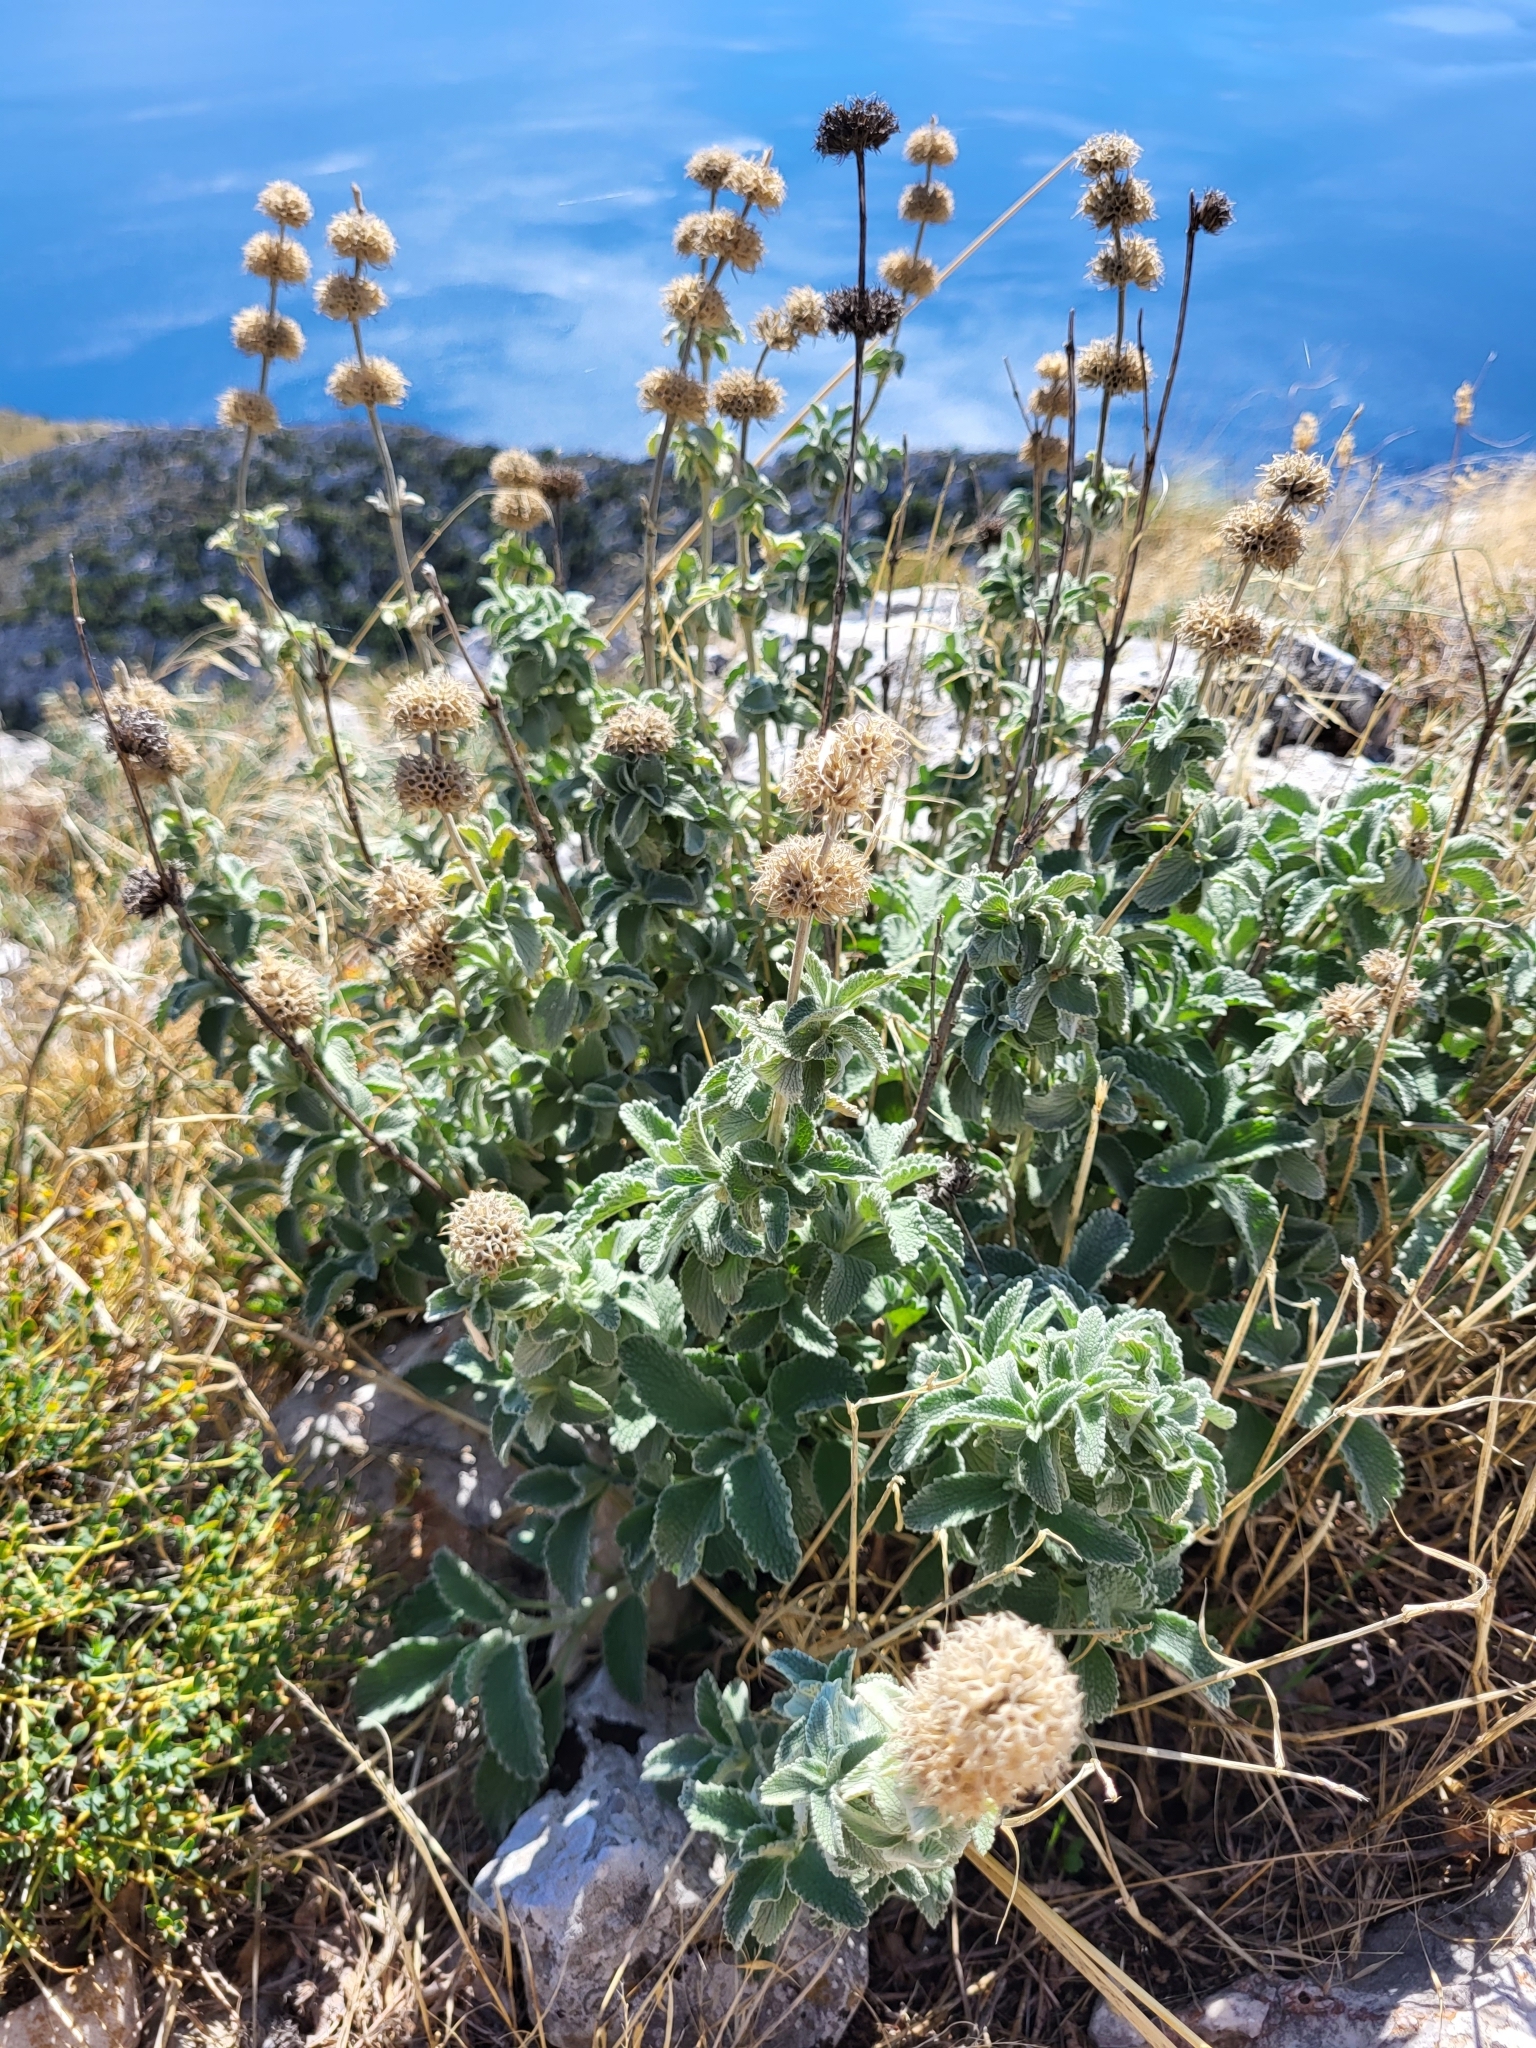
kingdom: Plantae
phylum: Tracheophyta
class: Magnoliopsida
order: Lamiales
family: Lamiaceae
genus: Marrubium
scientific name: Marrubium incanum
